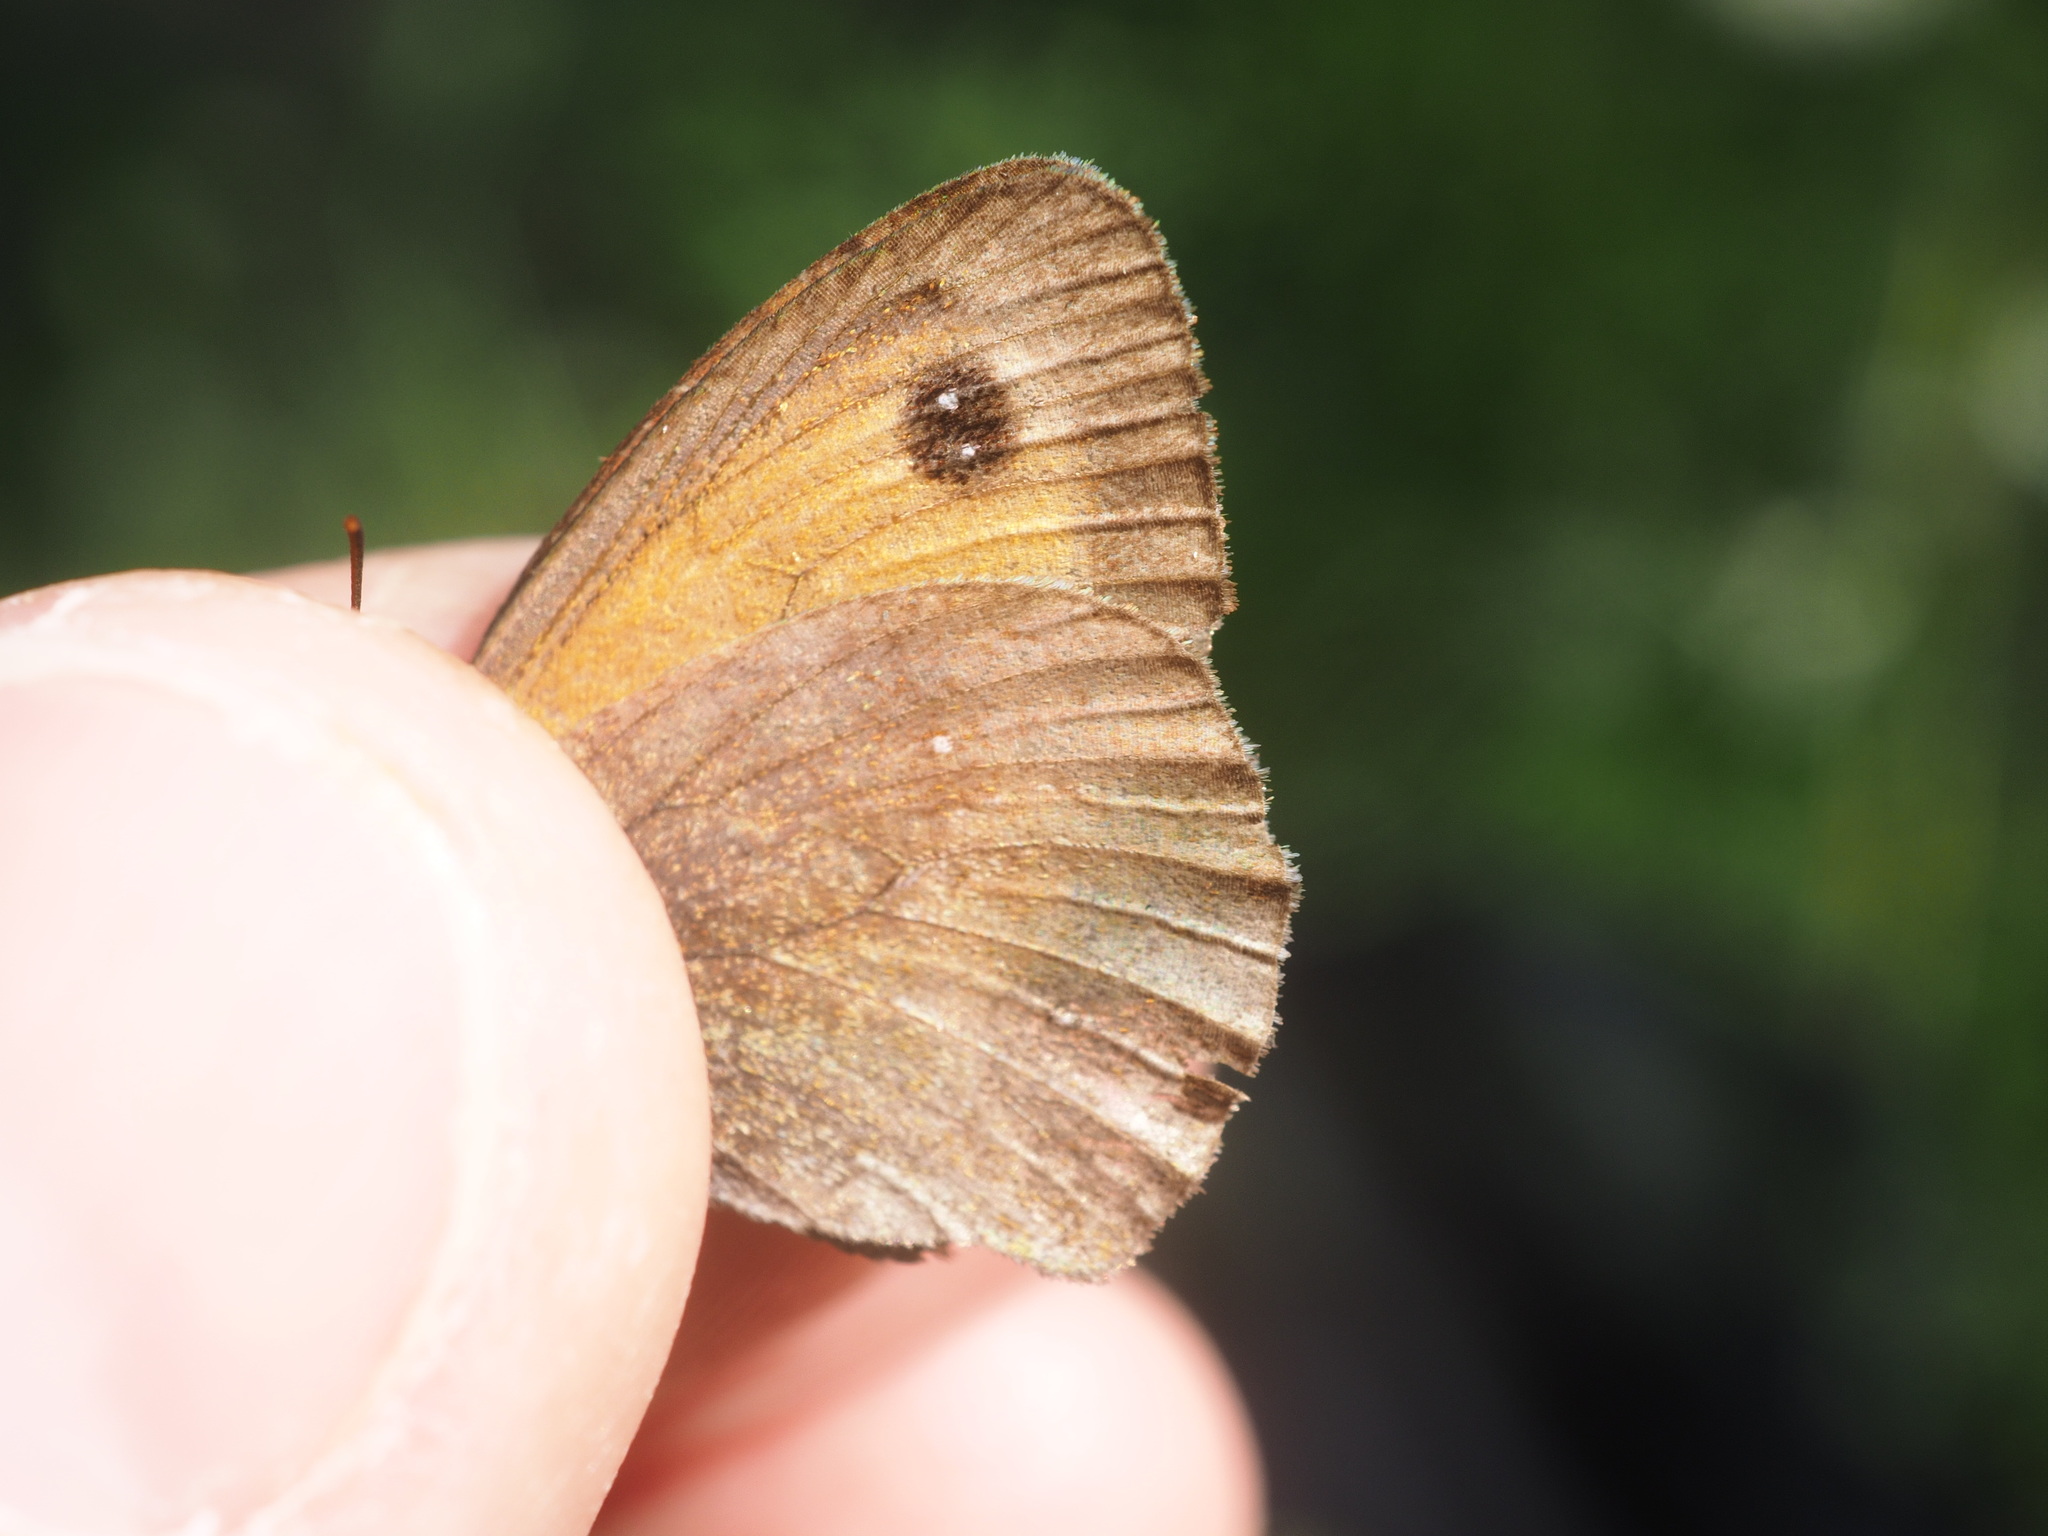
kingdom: Animalia
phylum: Arthropoda
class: Insecta
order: Lepidoptera
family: Nymphalidae
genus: Pyronia
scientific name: Pyronia tithonus
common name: Gatekeeper
